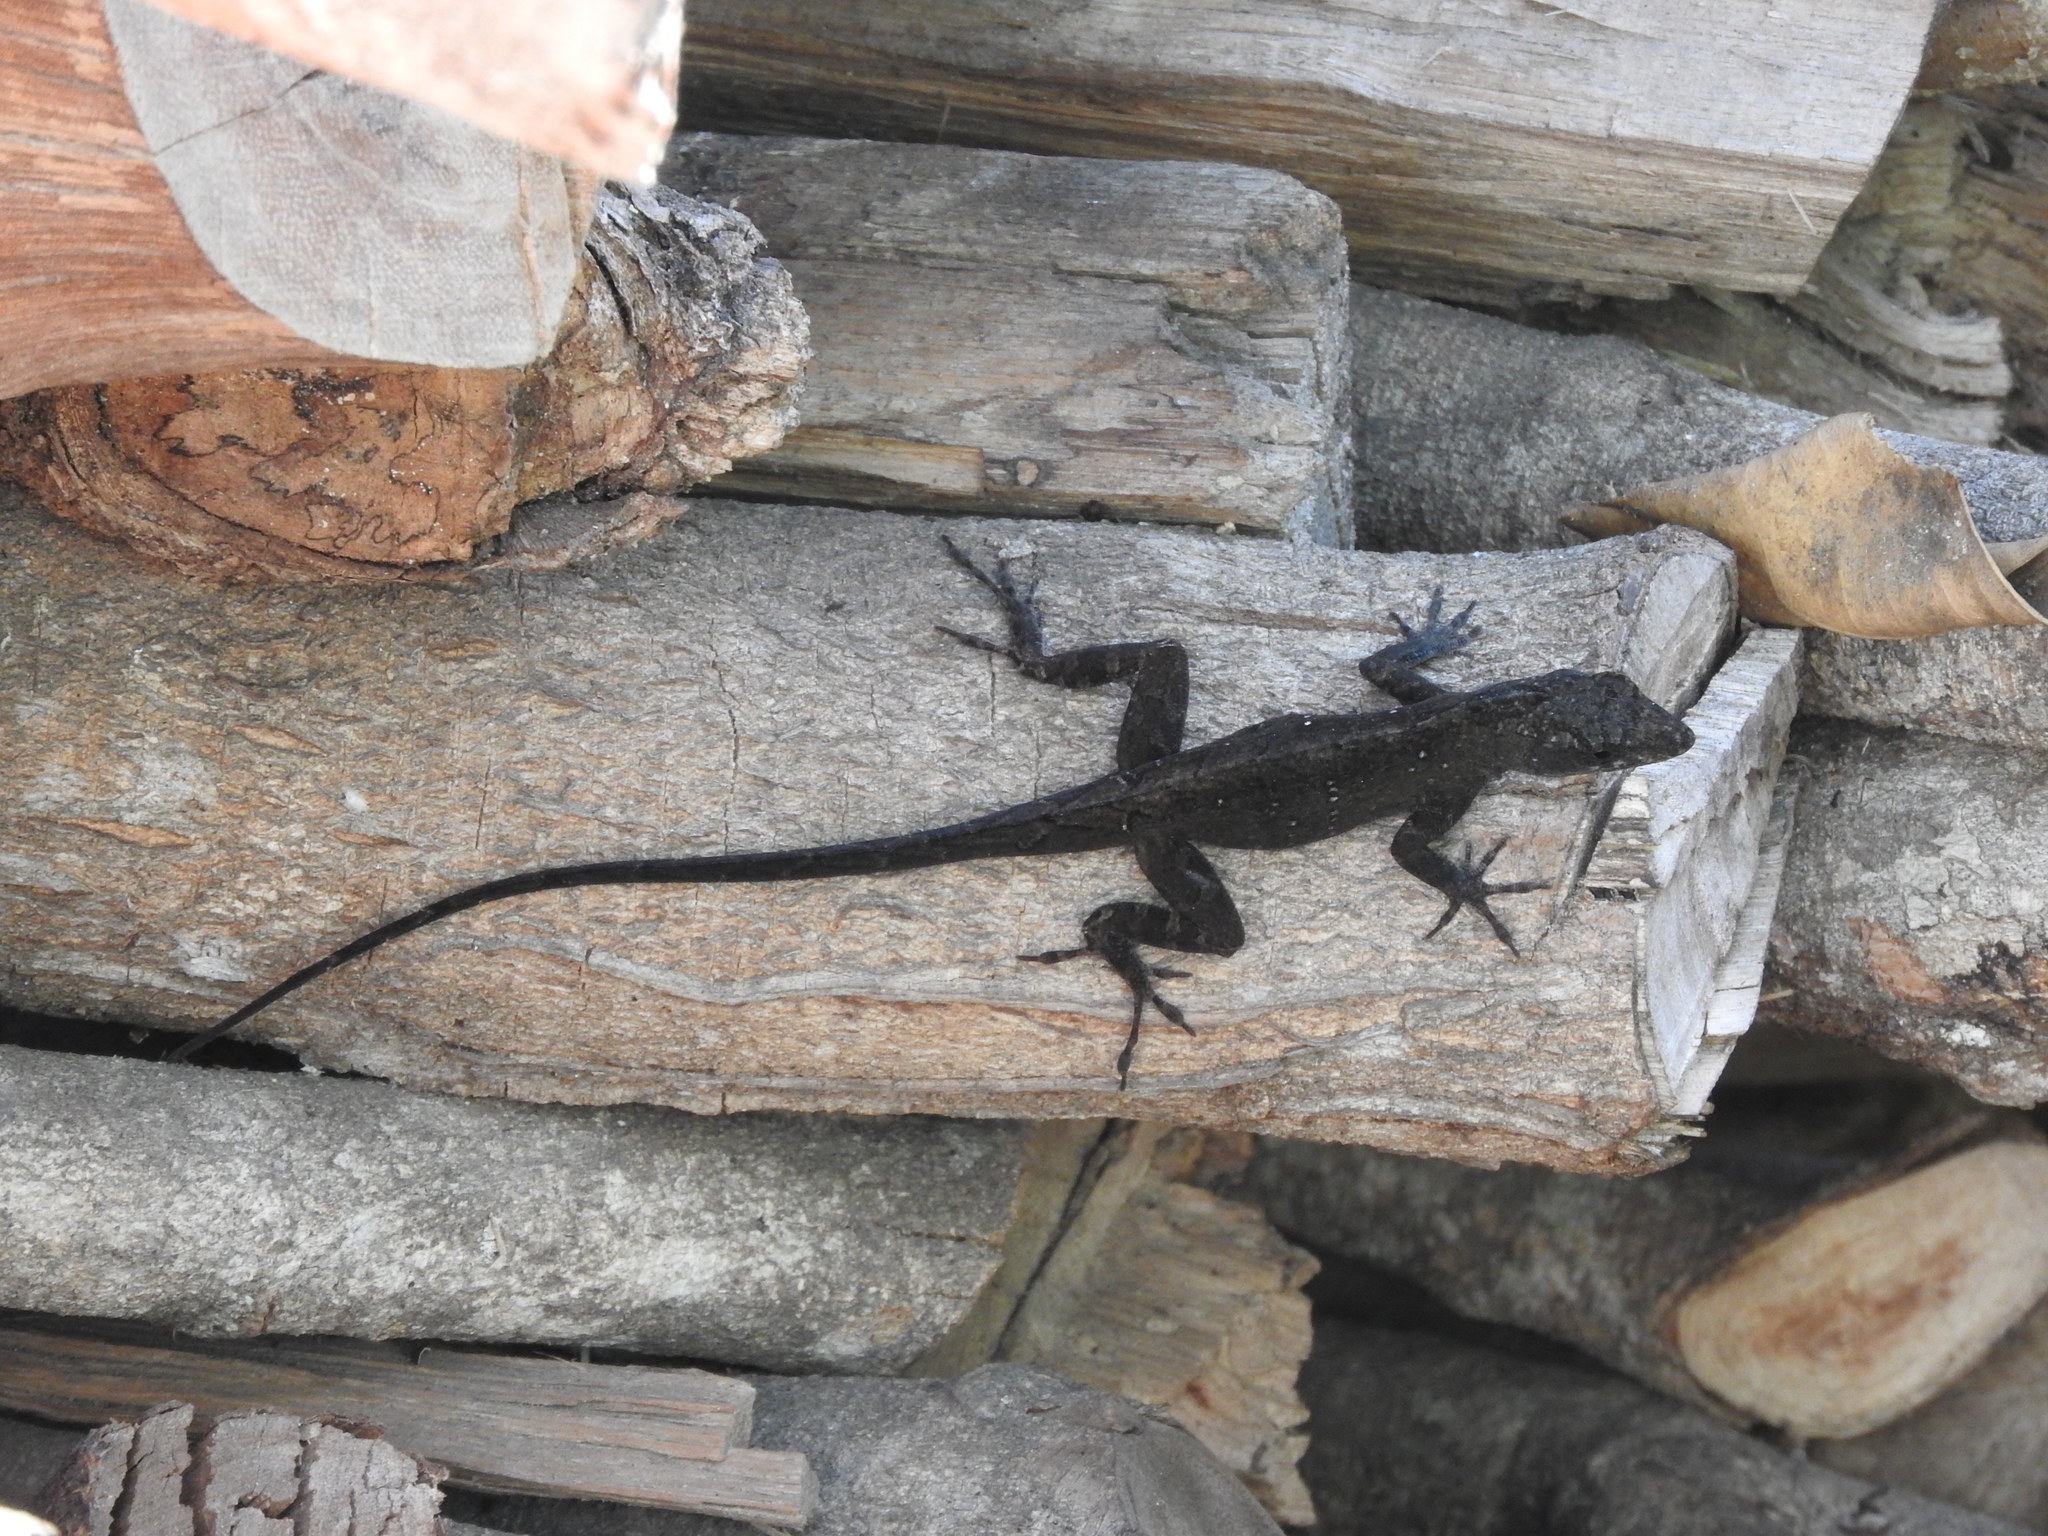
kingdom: Animalia
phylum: Chordata
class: Squamata
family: Dactyloidae
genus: Anolis
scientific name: Anolis sagrei
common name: Brown anole
